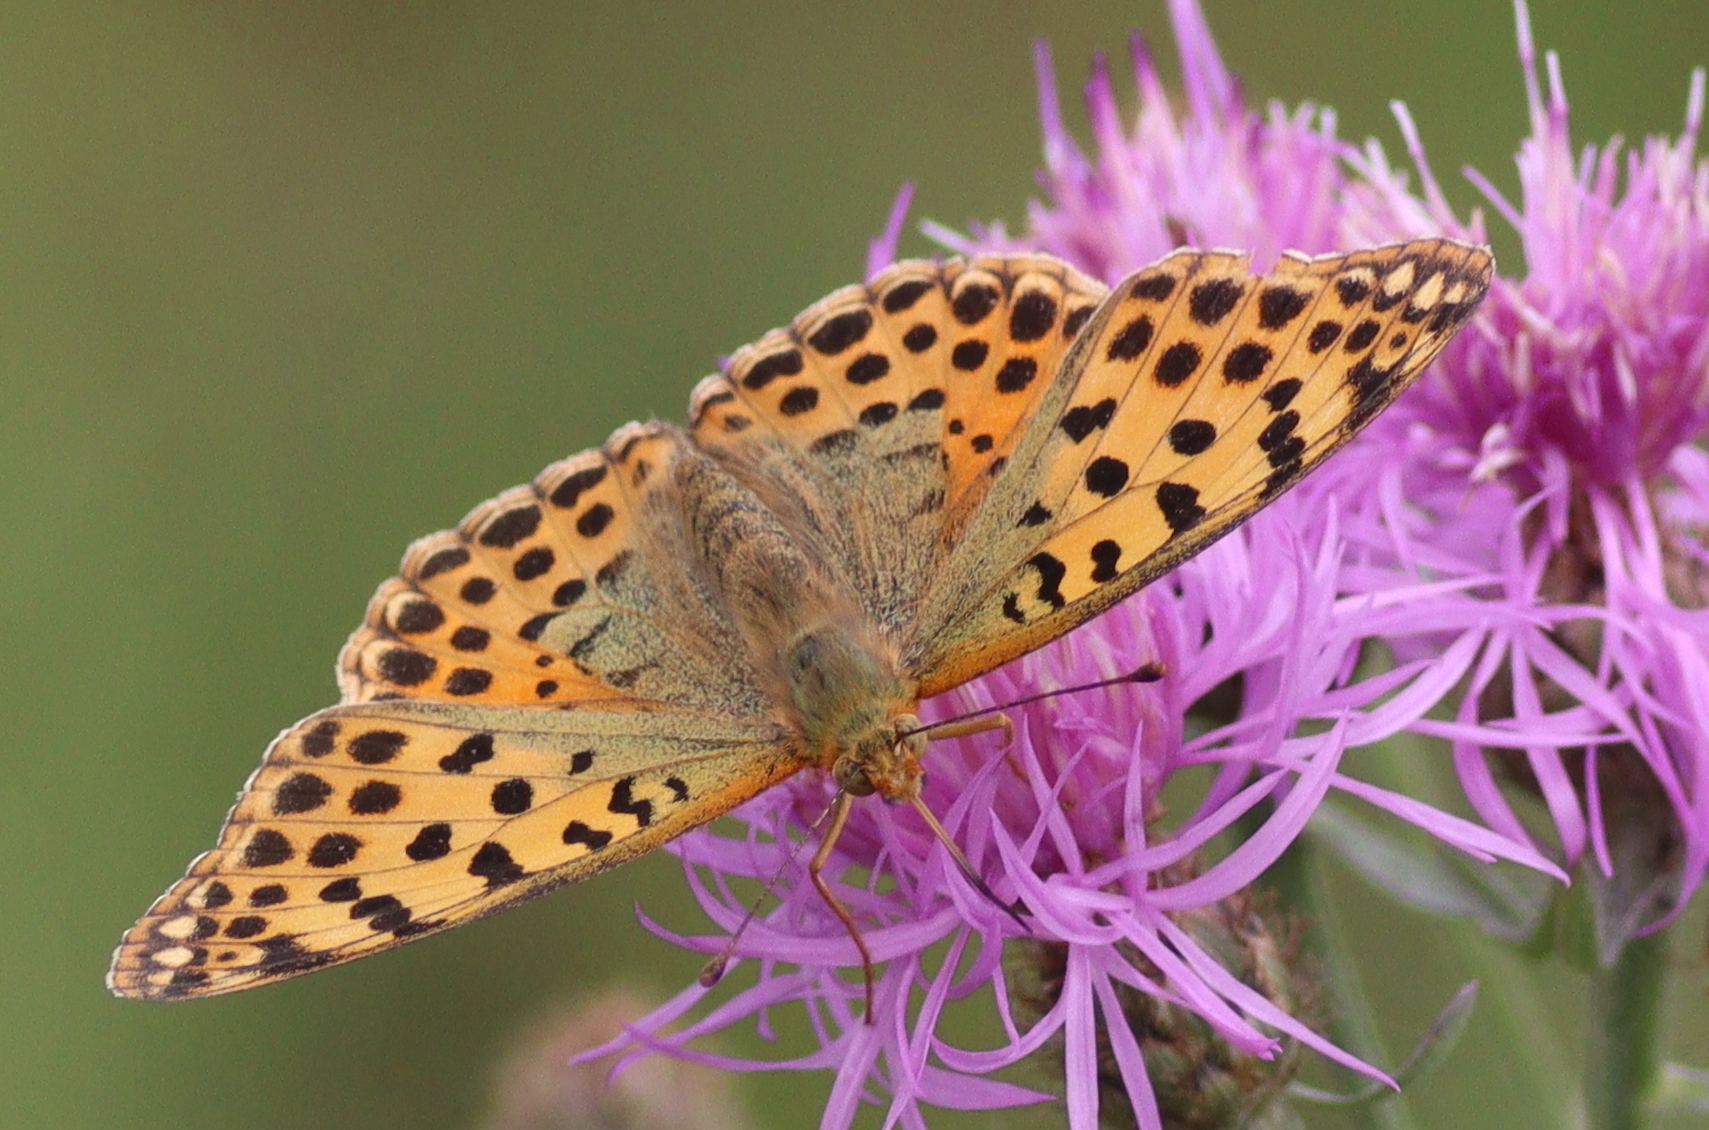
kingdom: Animalia
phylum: Arthropoda
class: Insecta
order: Lepidoptera
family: Nymphalidae
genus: Issoria
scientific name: Issoria lathonia
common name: Queen of spain fritillary
